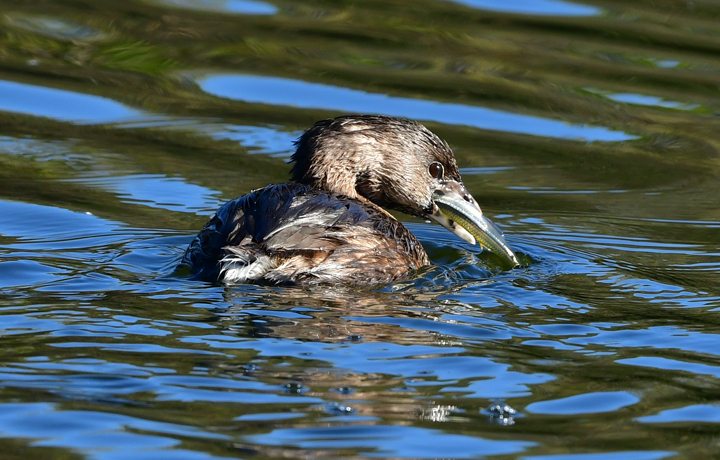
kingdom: Animalia
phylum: Chordata
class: Aves
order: Podicipediformes
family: Podicipedidae
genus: Podilymbus
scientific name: Podilymbus podiceps
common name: Pied-billed grebe
